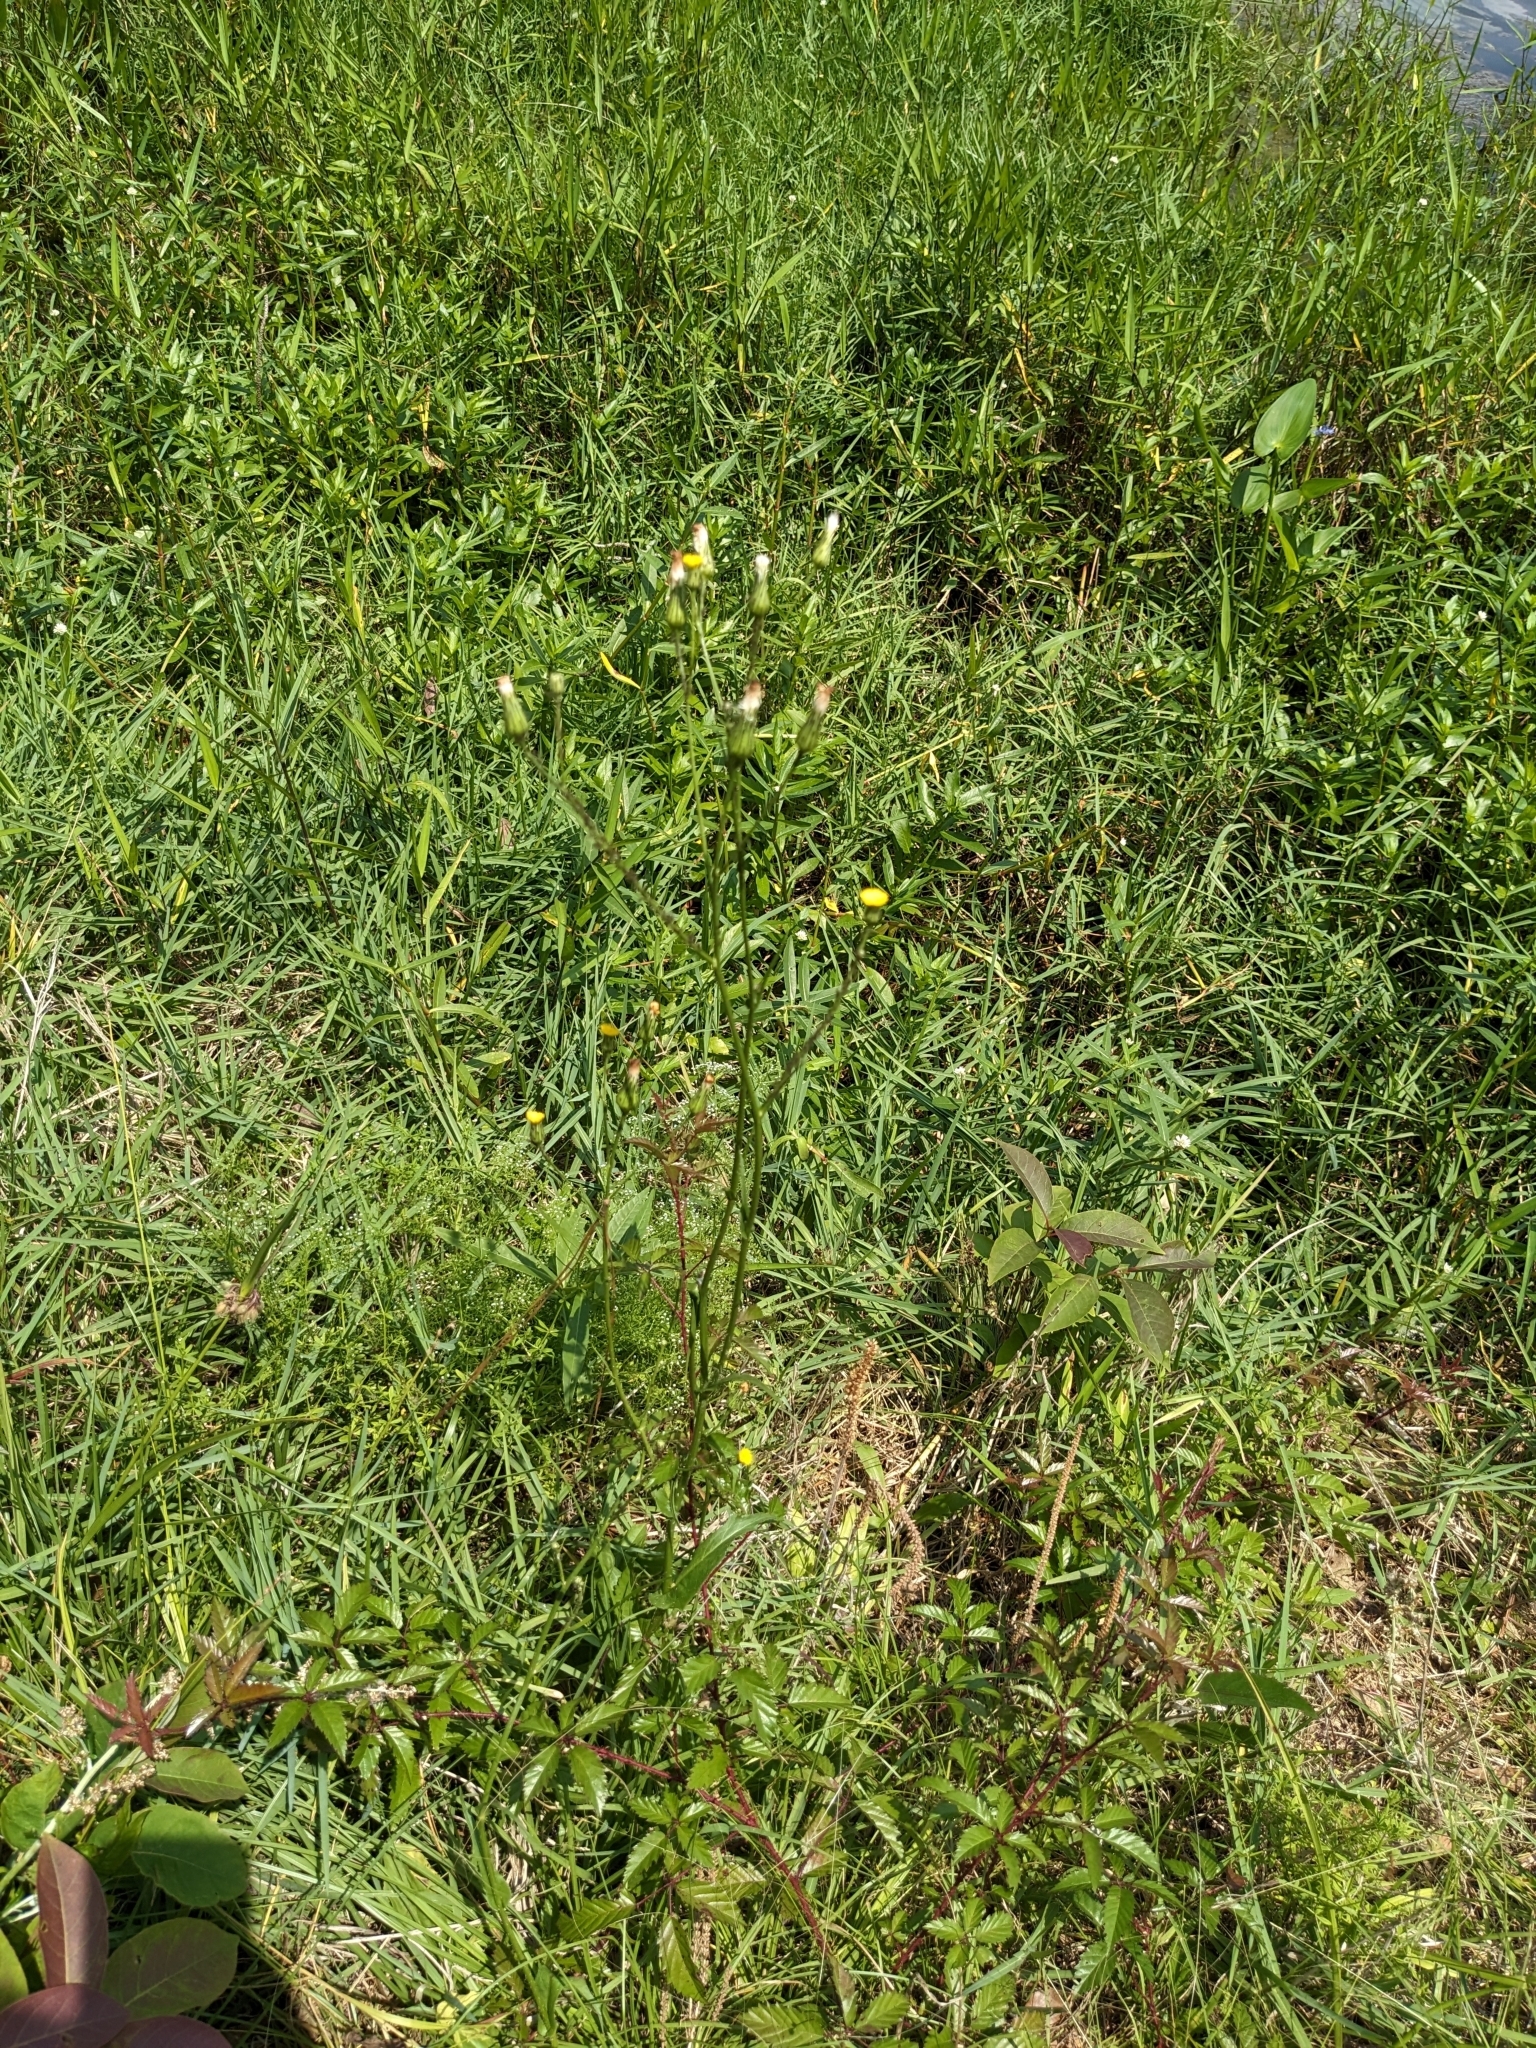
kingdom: Plantae
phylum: Tracheophyta
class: Magnoliopsida
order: Asterales
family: Asteraceae
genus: Hypochaeris
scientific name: Hypochaeris chillensis
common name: Brazilian cat's ear
